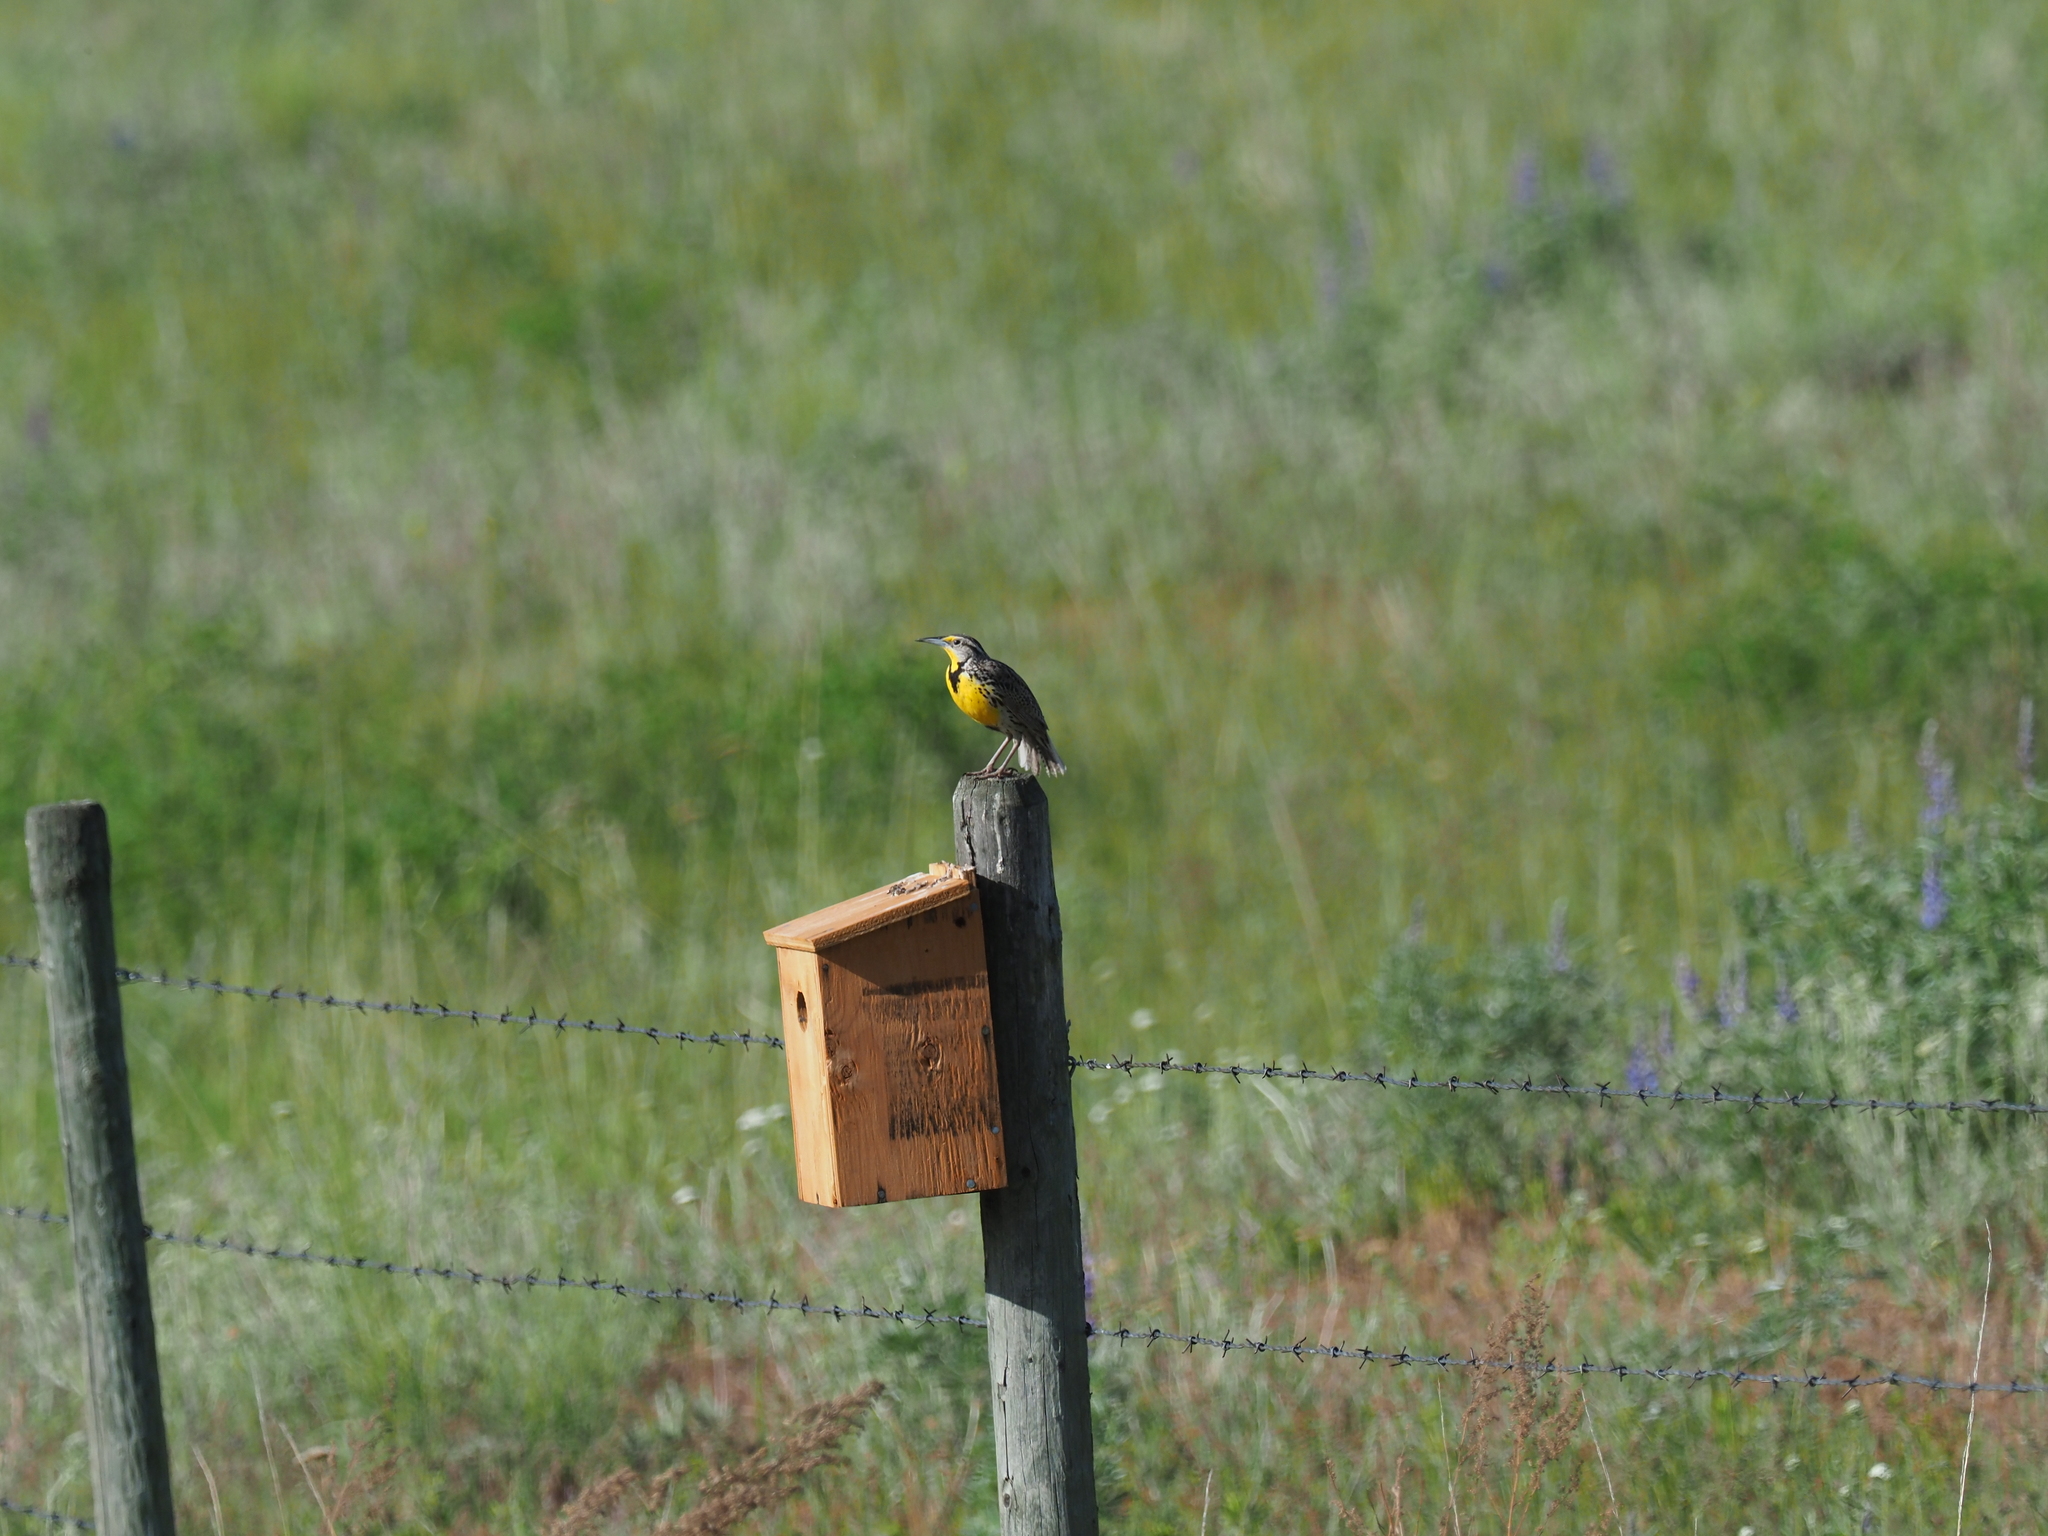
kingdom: Animalia
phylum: Chordata
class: Aves
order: Passeriformes
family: Icteridae
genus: Sturnella
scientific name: Sturnella neglecta
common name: Western meadowlark
